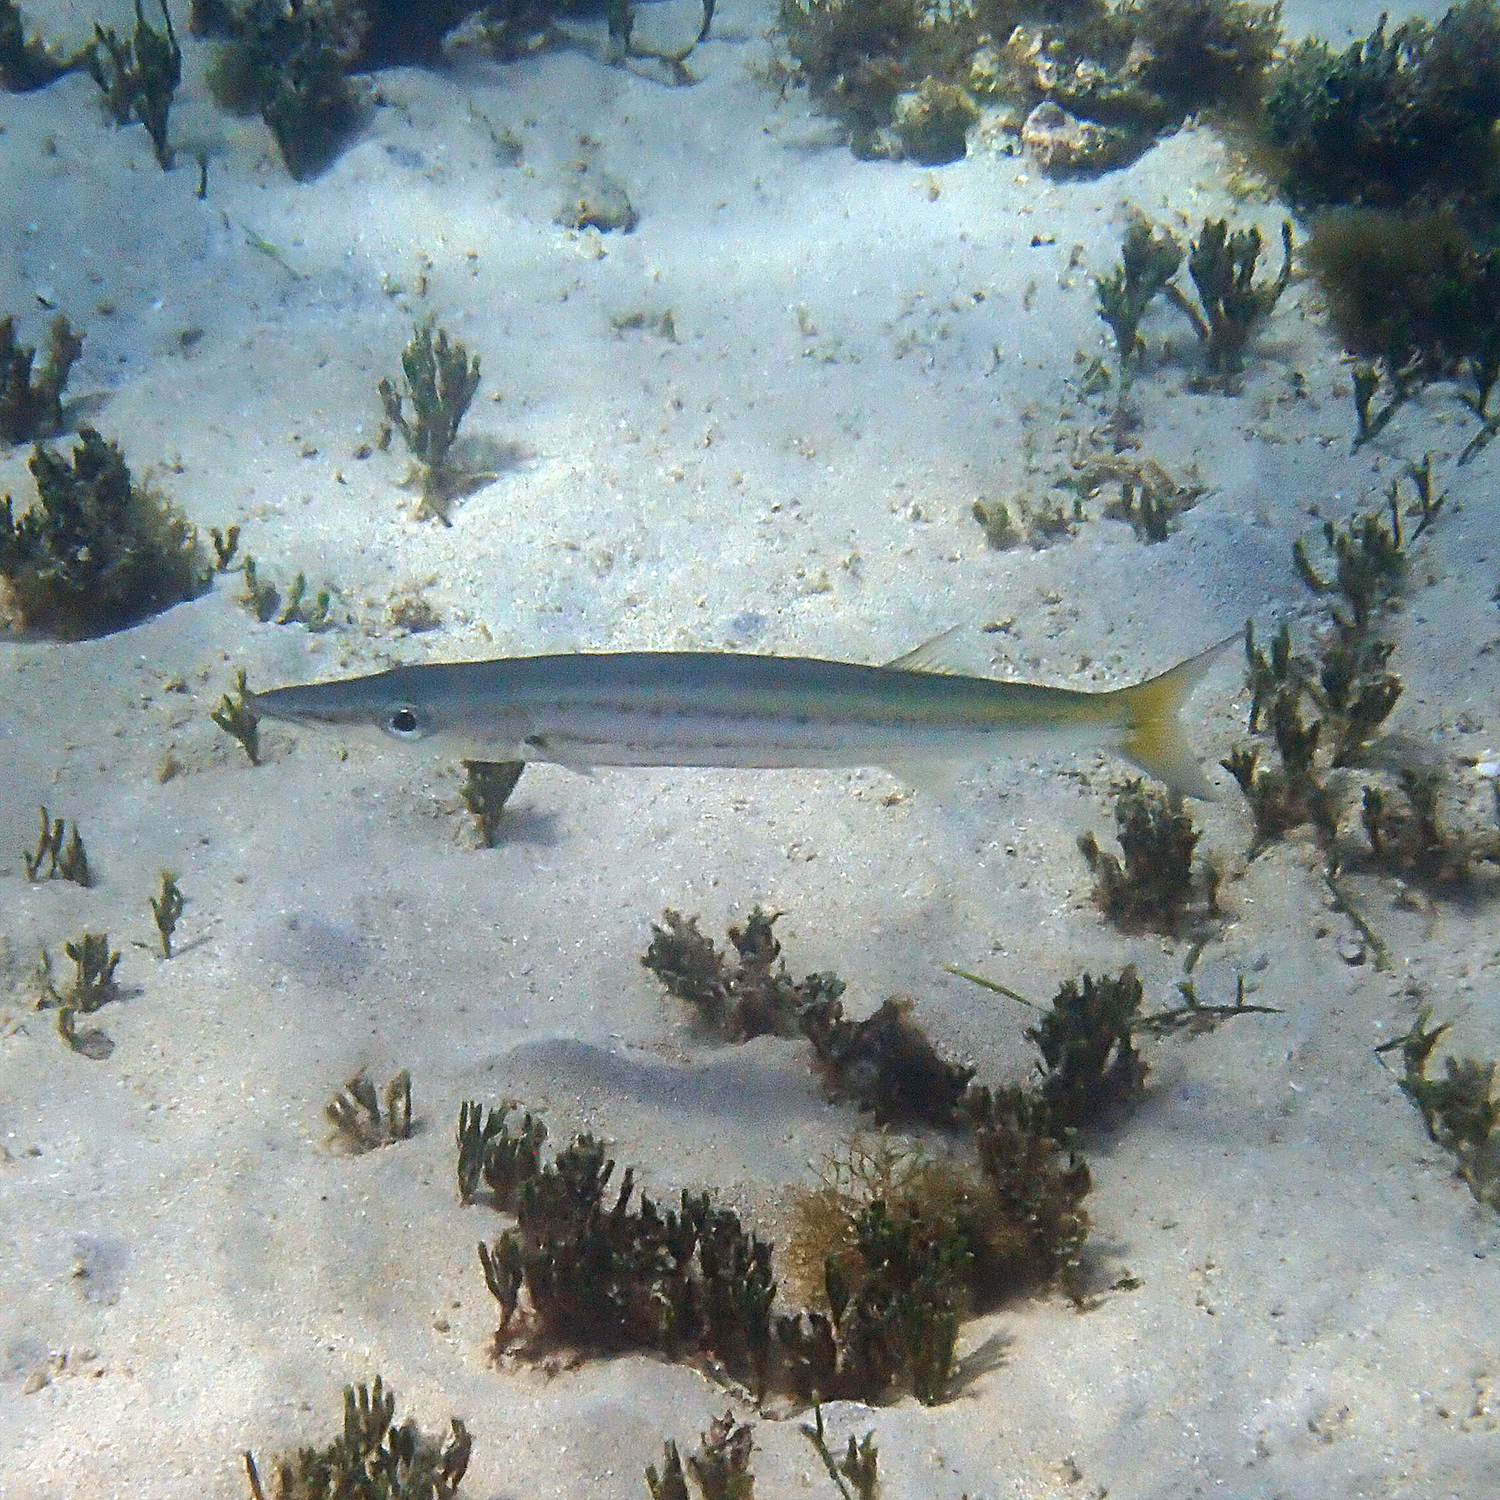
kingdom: Animalia
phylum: Chordata
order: Perciformes
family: Sphyraenidae
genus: Sphyraena
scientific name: Sphyraena flavicauda
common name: Yellowtail barracuda
